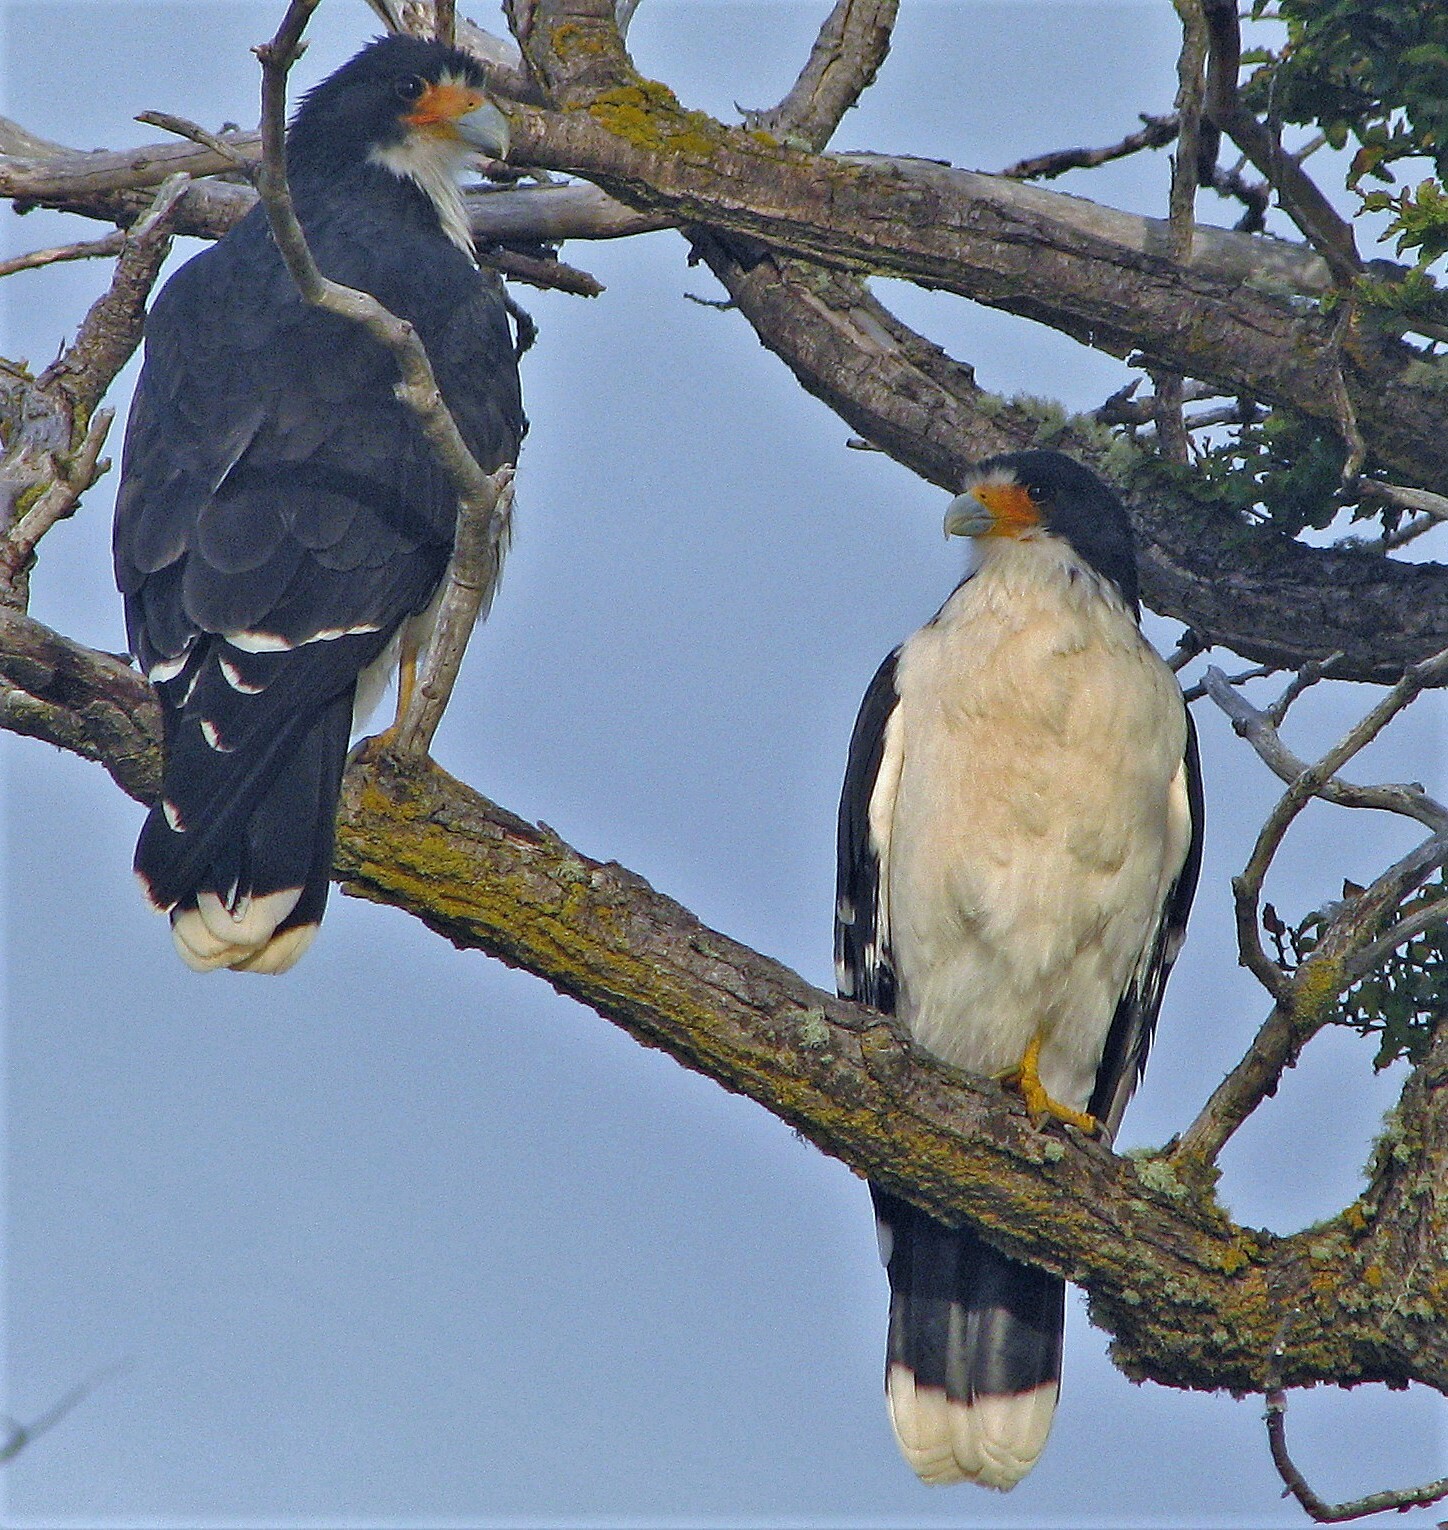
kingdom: Animalia
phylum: Chordata
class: Aves
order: Falconiformes
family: Falconidae
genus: Daptrius
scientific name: Daptrius
